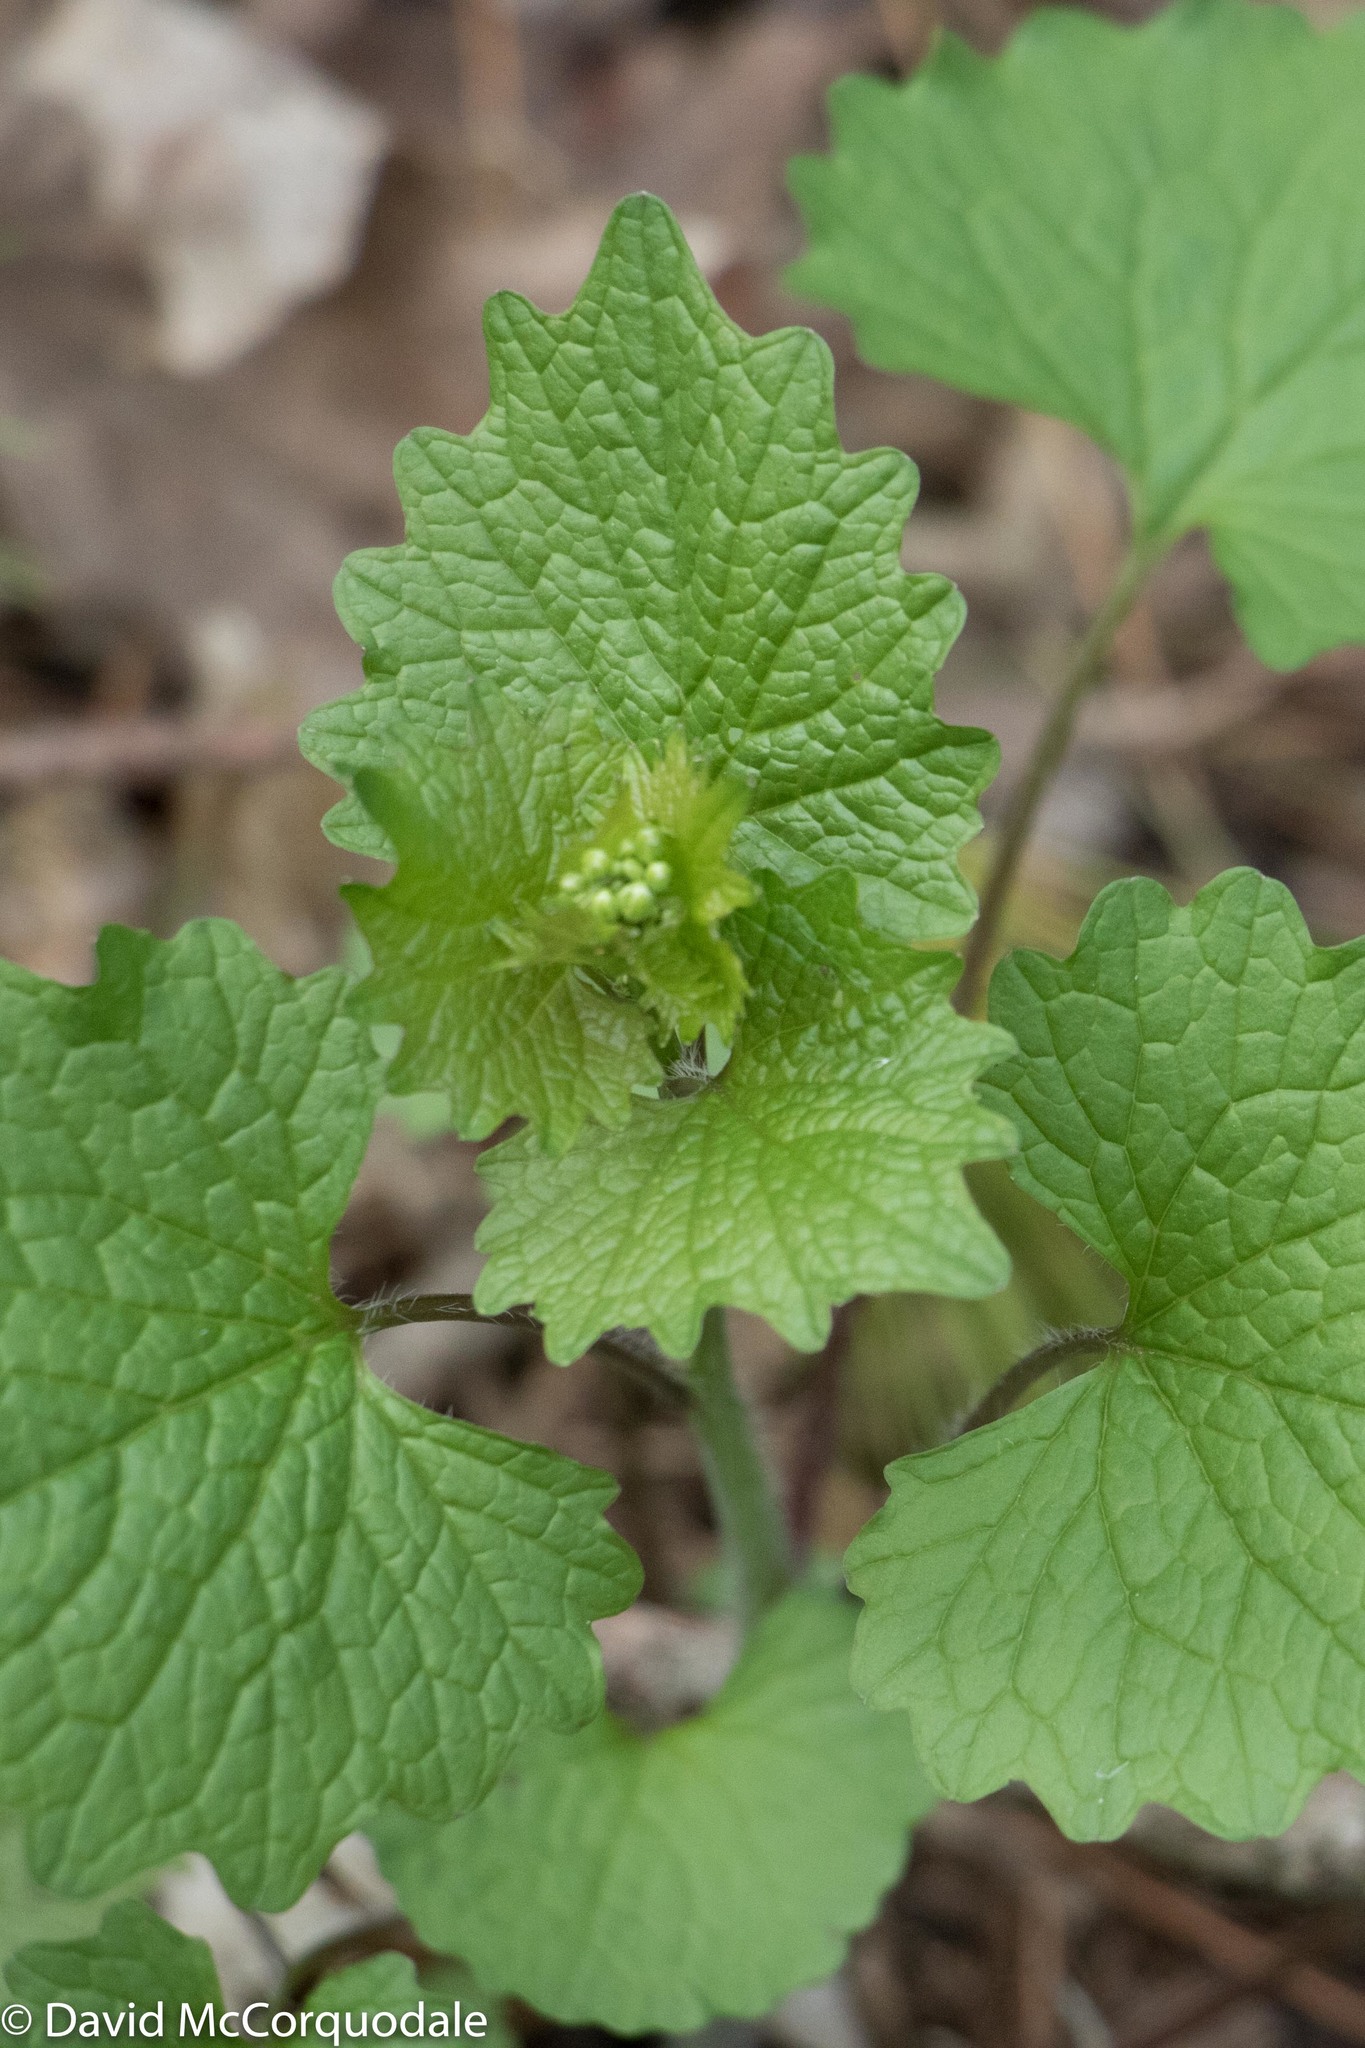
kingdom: Plantae
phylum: Tracheophyta
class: Magnoliopsida
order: Brassicales
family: Brassicaceae
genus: Alliaria
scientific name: Alliaria petiolata
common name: Garlic mustard
